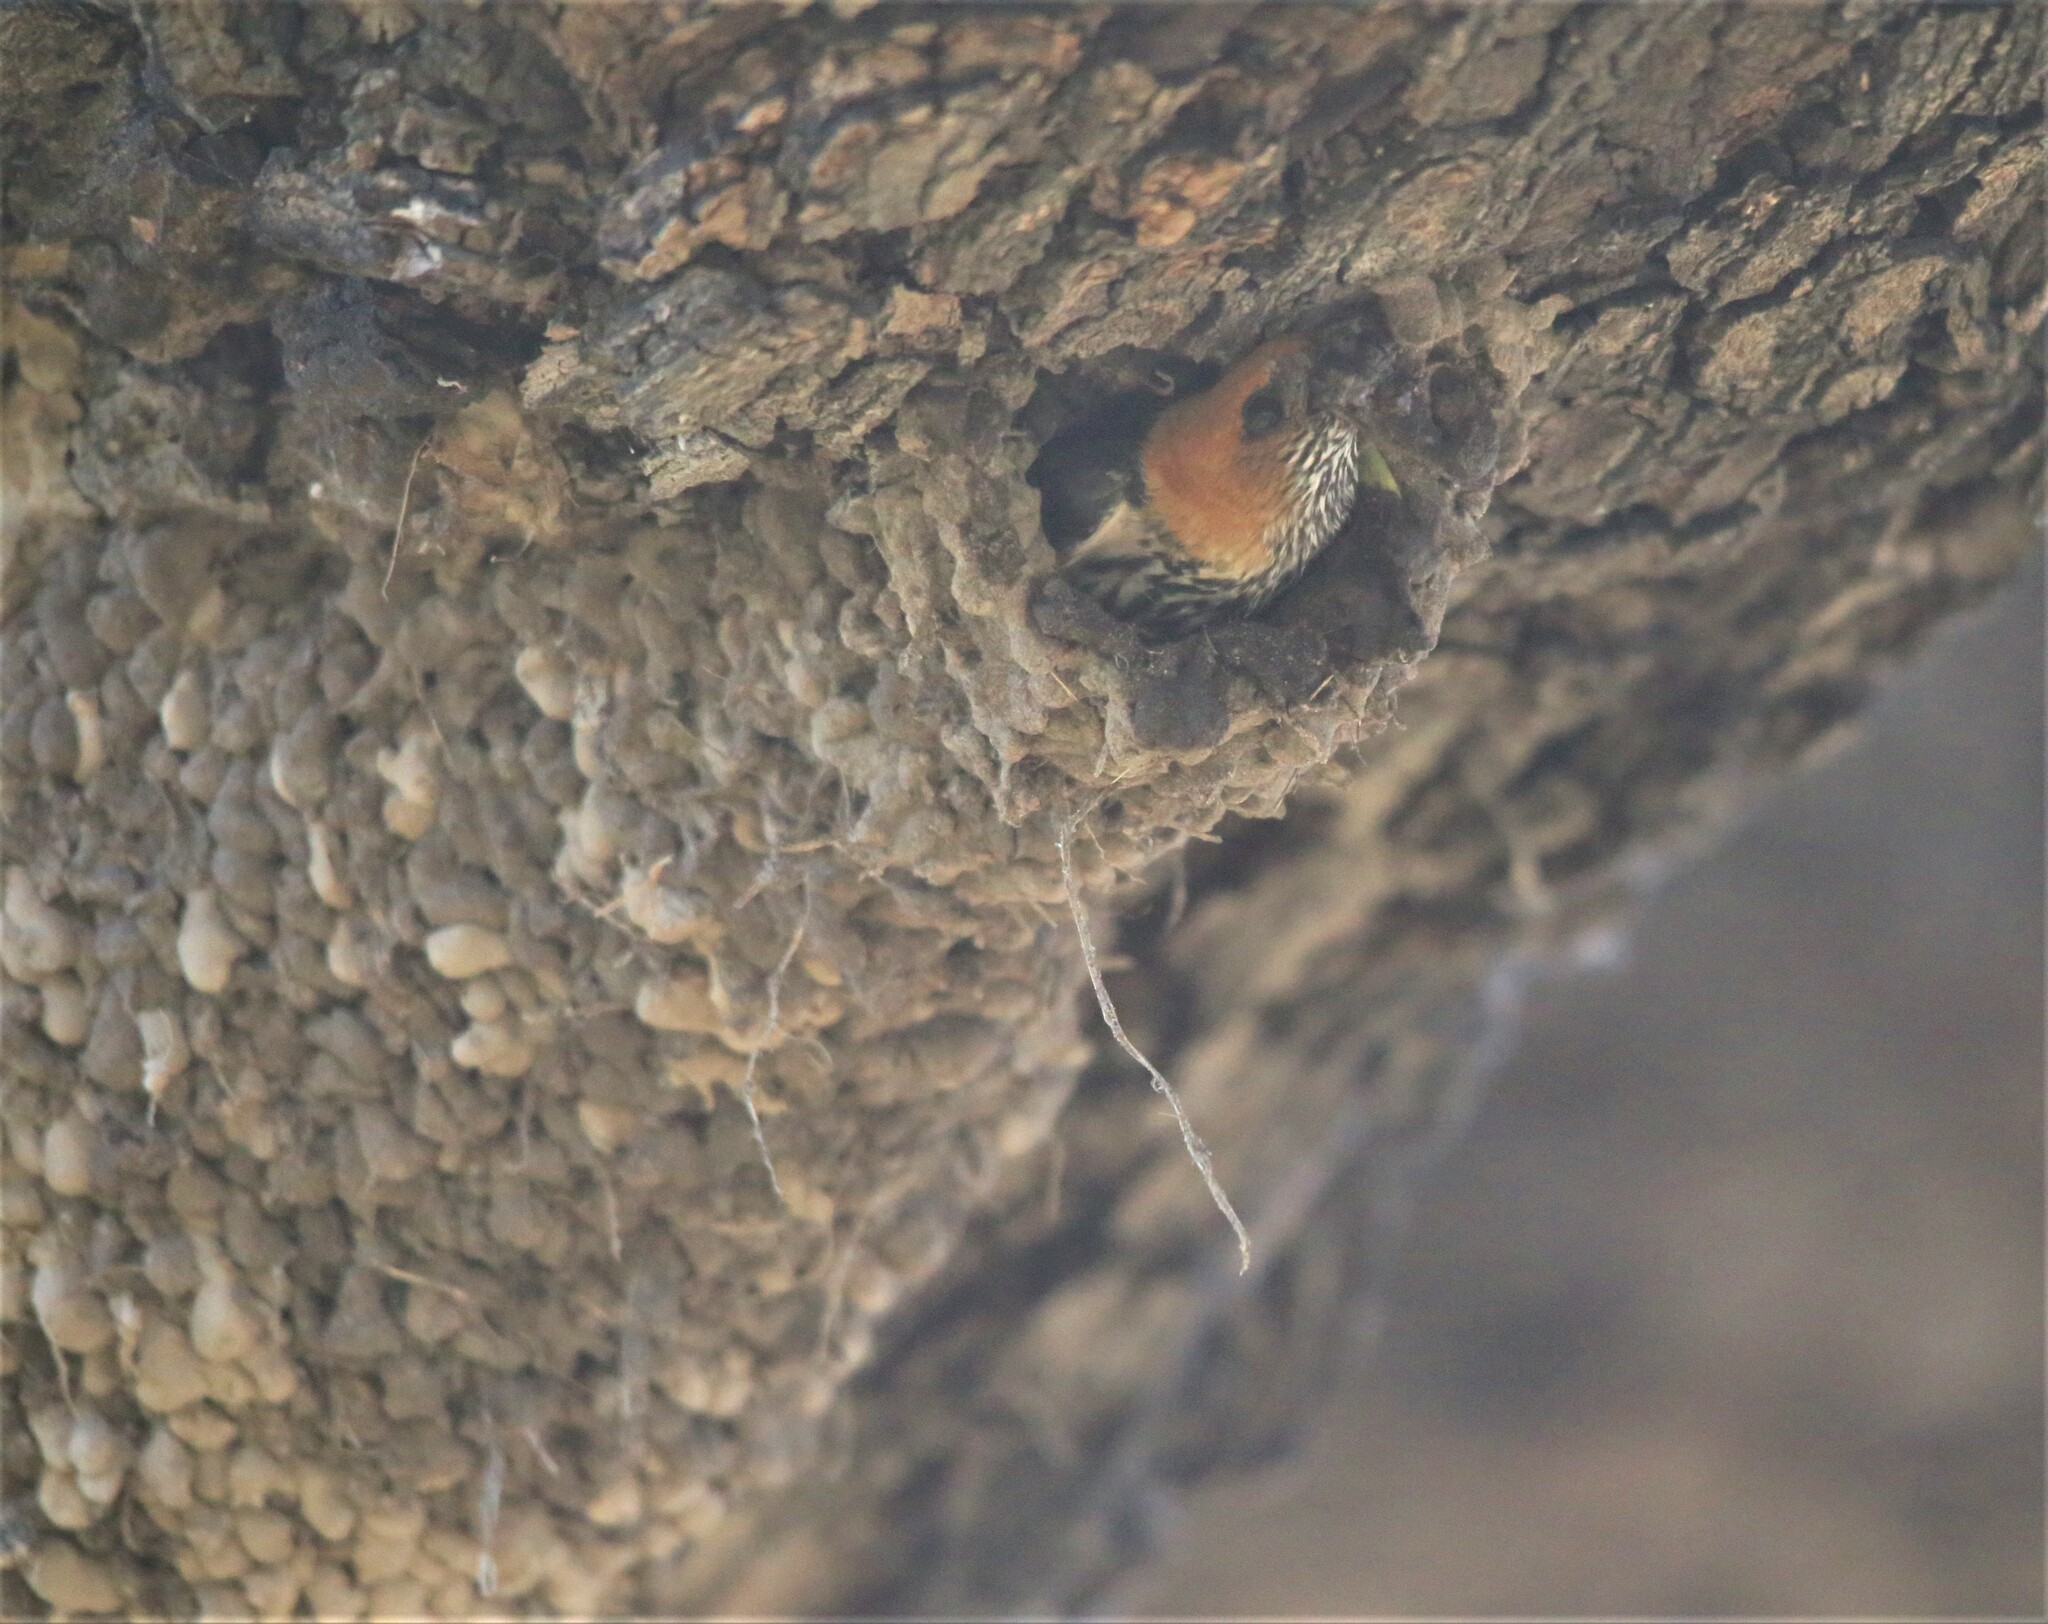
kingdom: Animalia
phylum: Chordata
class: Aves
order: Passeriformes
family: Hirundinidae
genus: Cecropis
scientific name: Cecropis abyssinica
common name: Lesser striped-swallow
